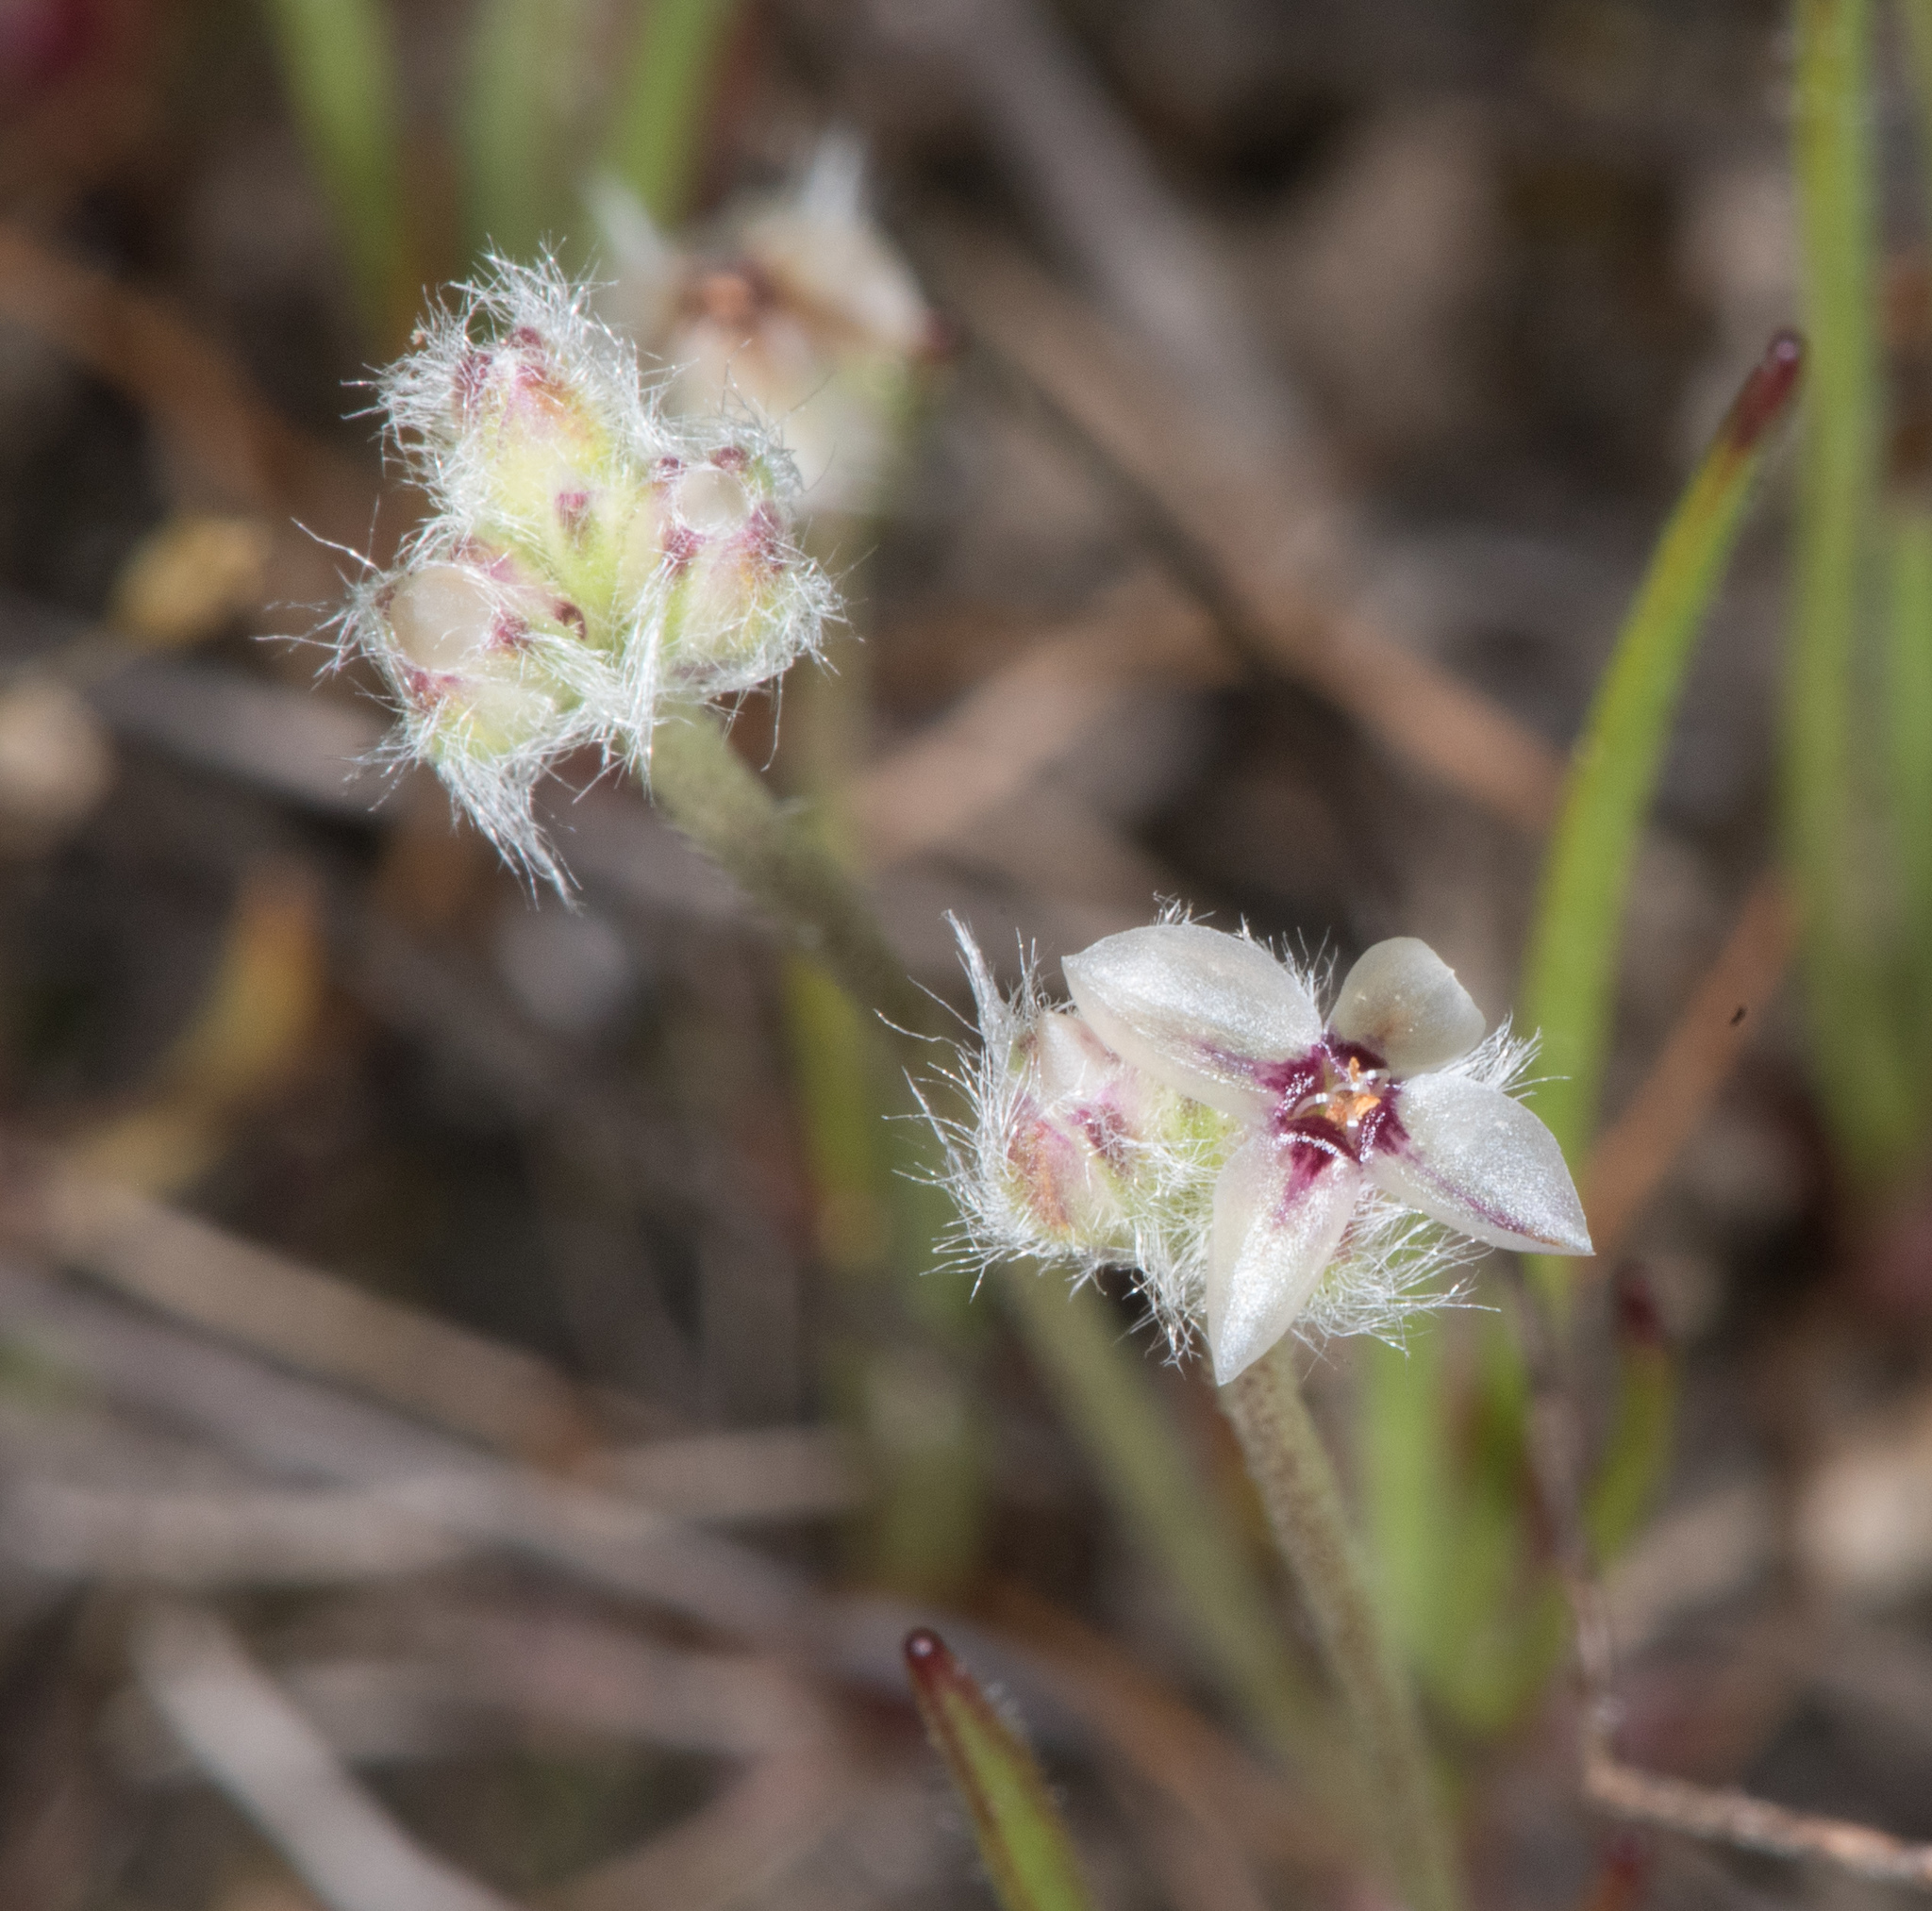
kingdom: Plantae
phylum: Tracheophyta
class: Magnoliopsida
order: Lamiales
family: Plantaginaceae
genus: Plantago
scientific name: Plantago erecta
